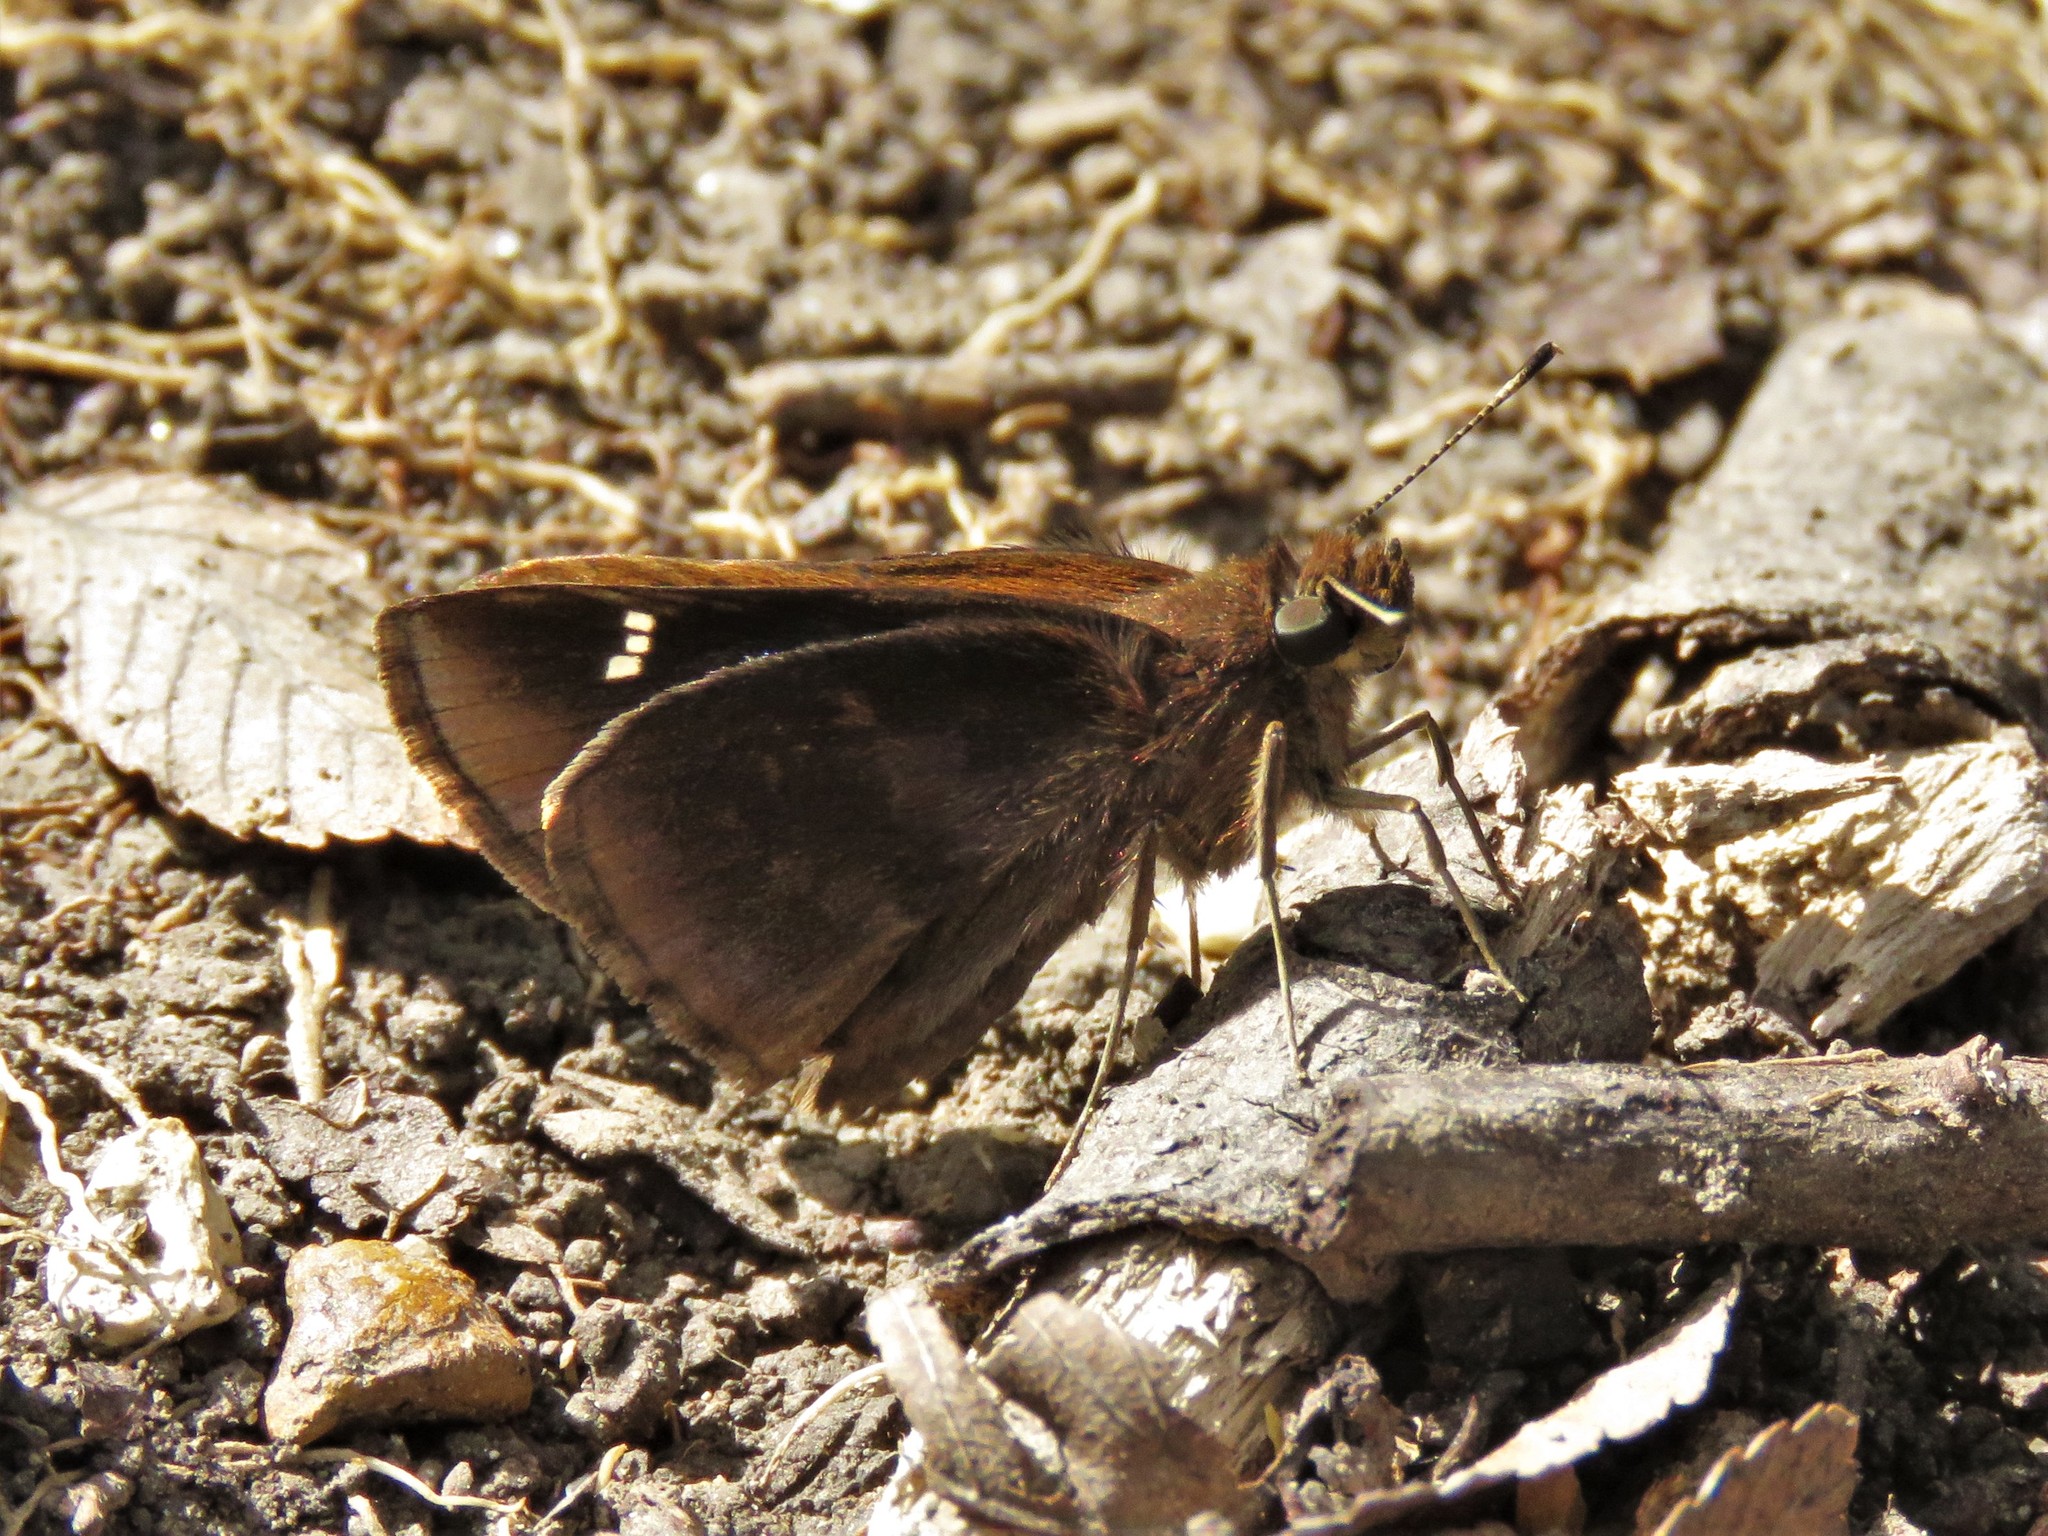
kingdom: Animalia
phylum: Arthropoda
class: Insecta
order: Lepidoptera
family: Hesperiidae
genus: Lerema
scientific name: Lerema accius
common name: Clouded skipper
